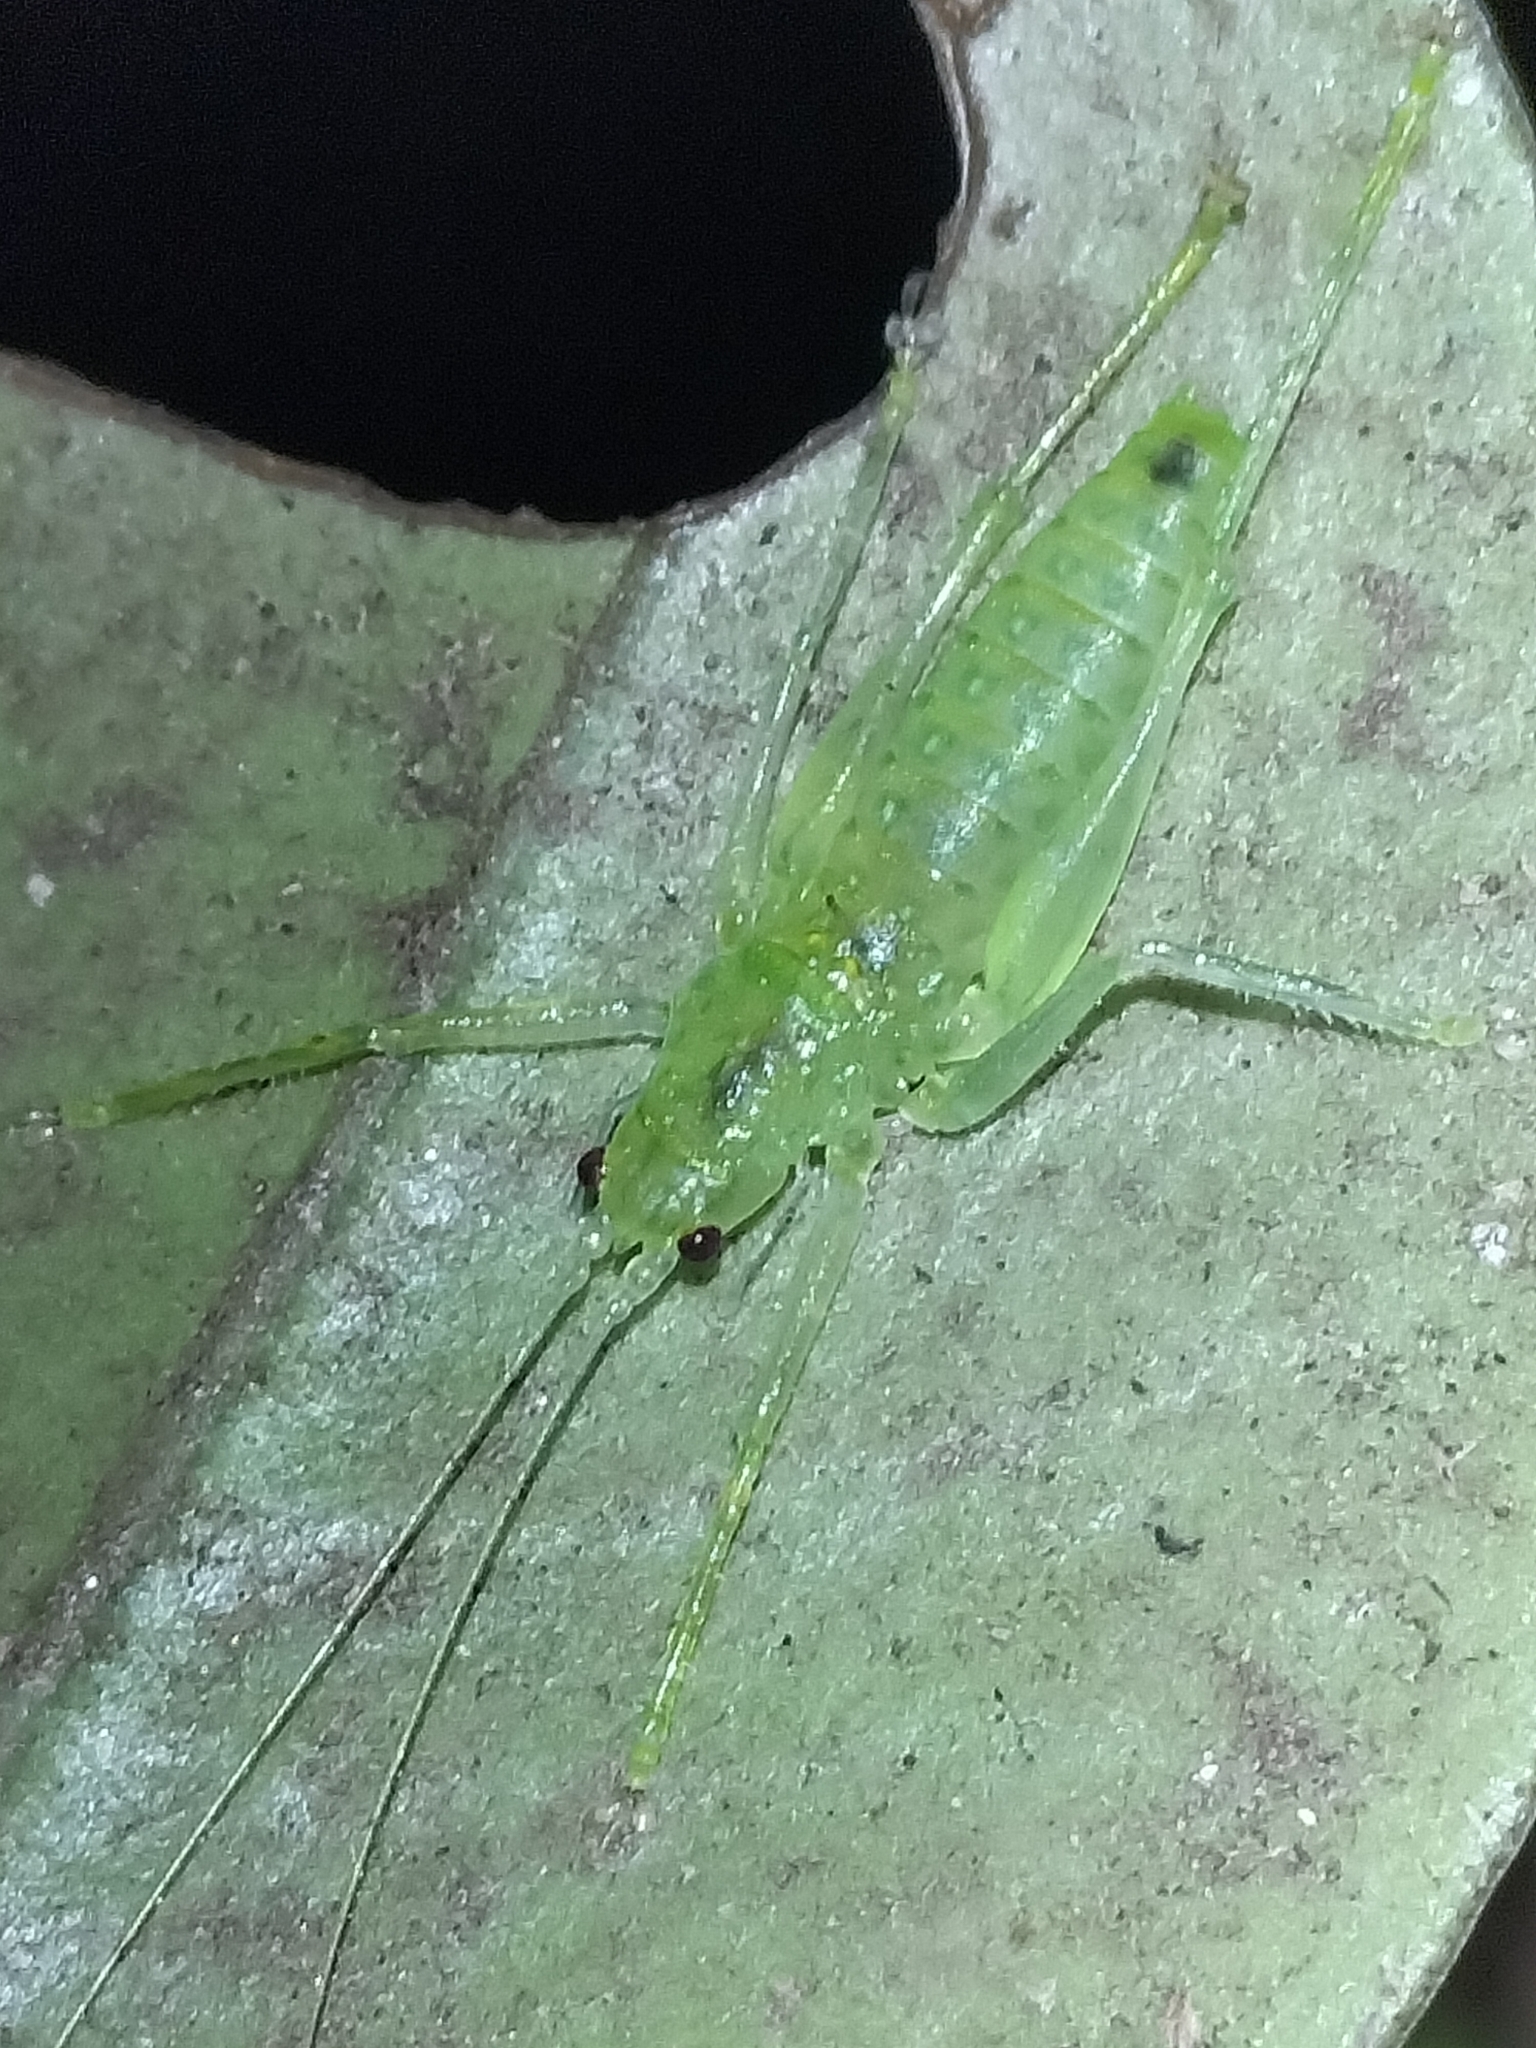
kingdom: Animalia
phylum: Arthropoda
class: Insecta
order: Orthoptera
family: Tettigoniidae
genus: Miniagraecia
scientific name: Miniagraecia milyali
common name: Tiny forest green katydid
